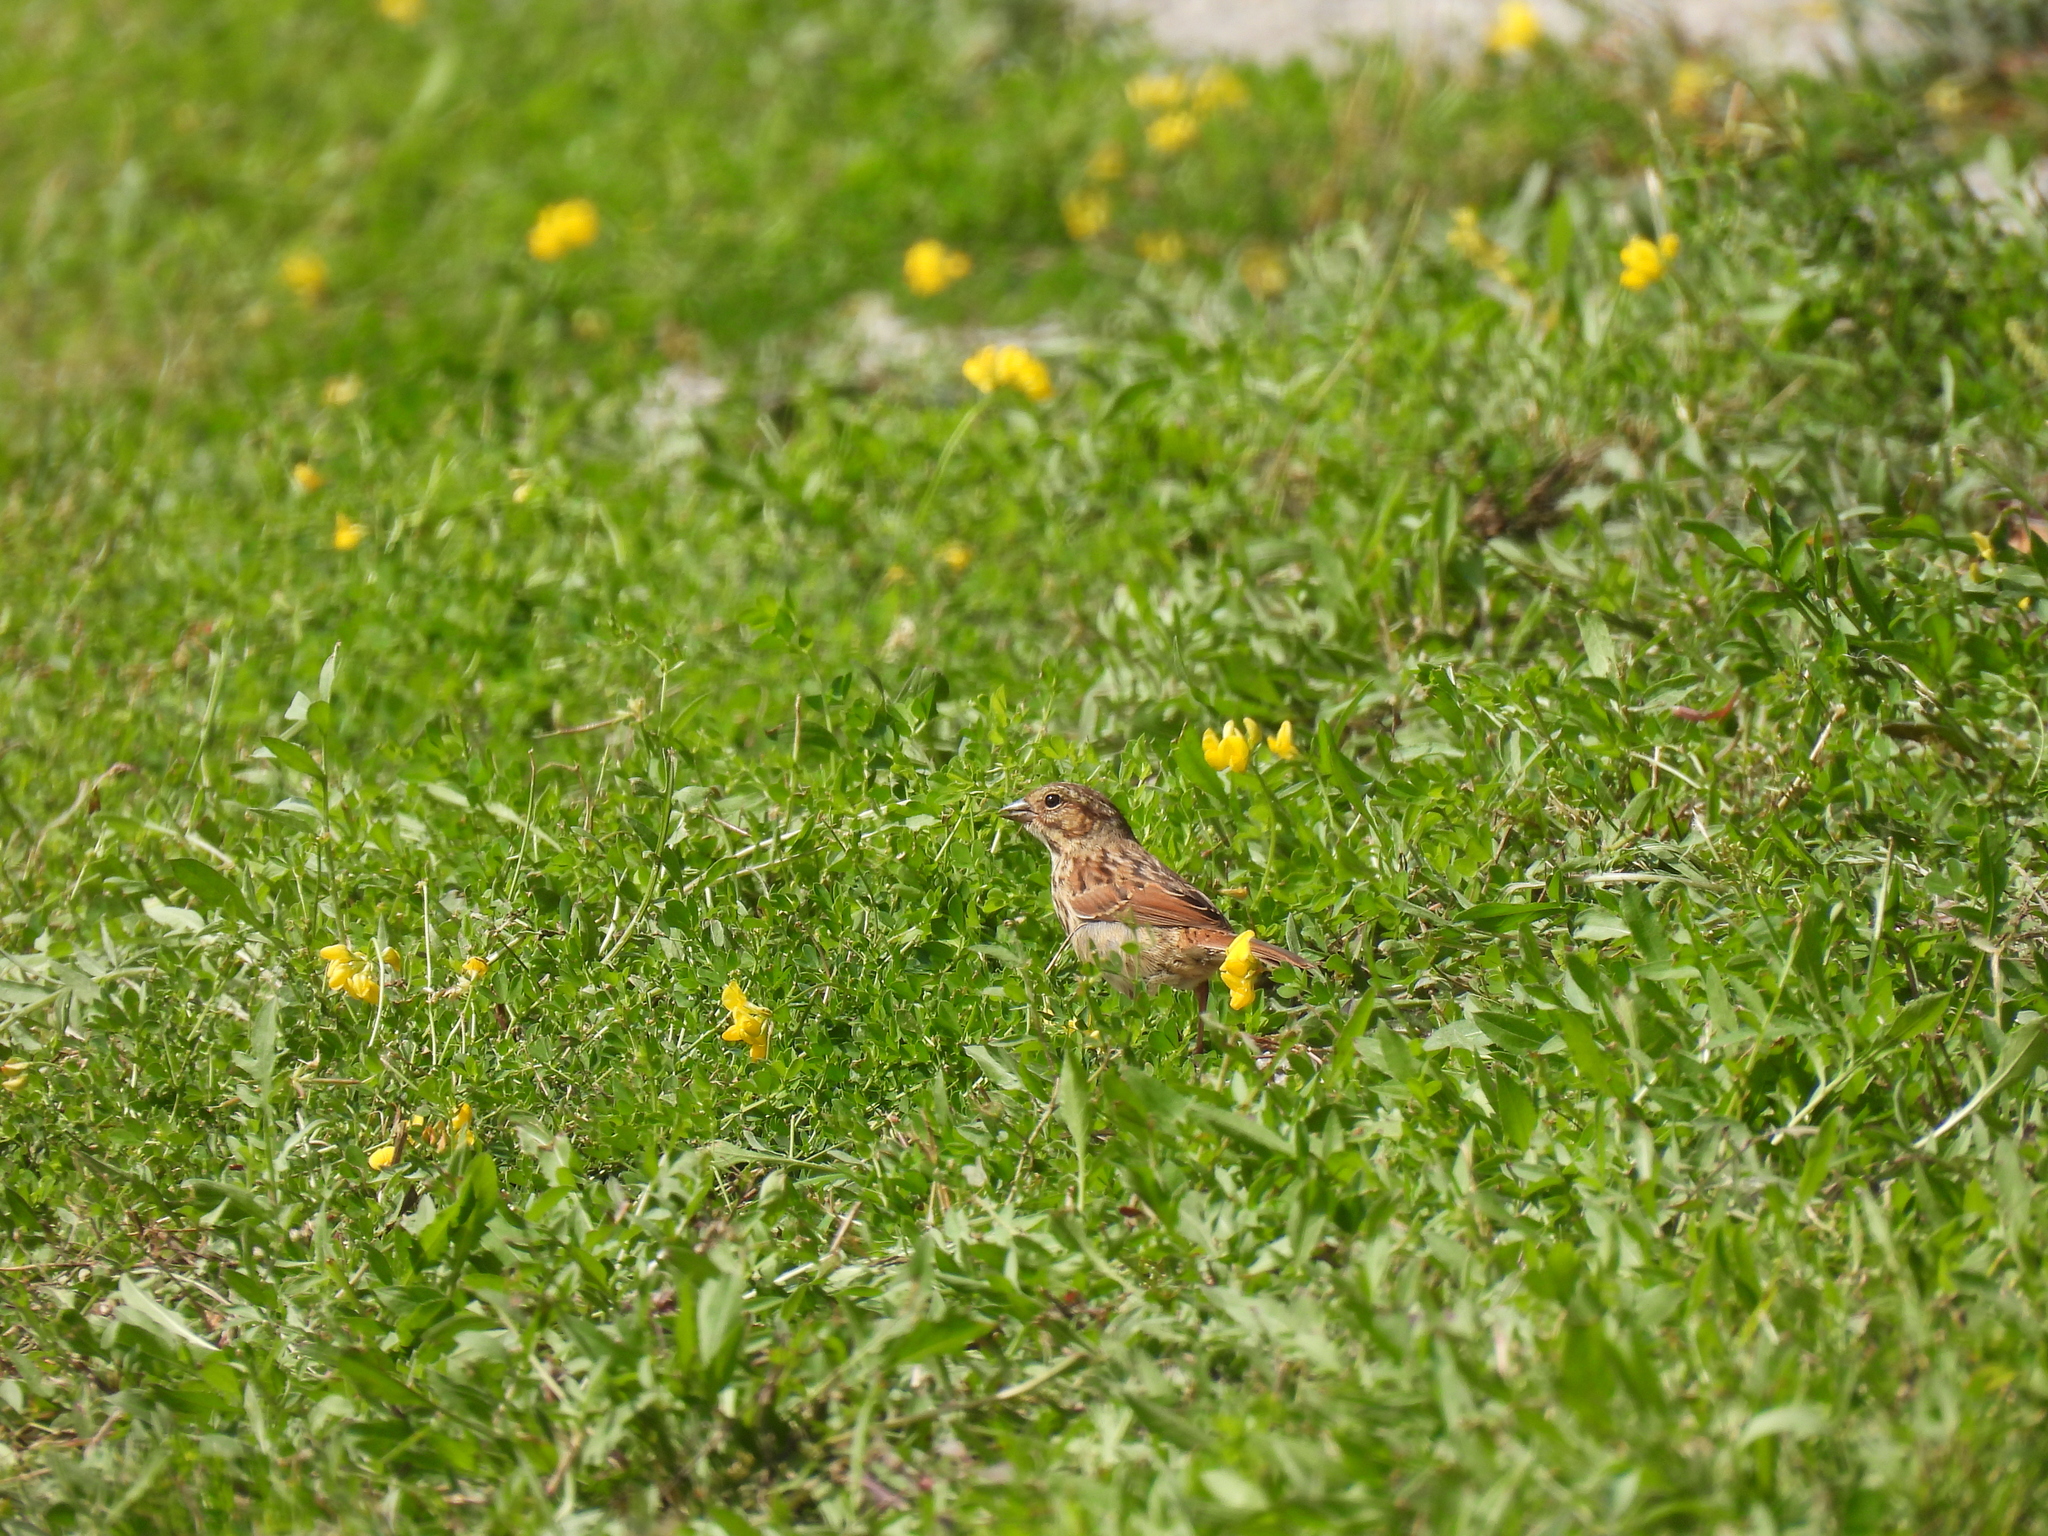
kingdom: Animalia
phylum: Chordata
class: Aves
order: Passeriformes
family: Passerellidae
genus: Melospiza
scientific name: Melospiza melodia
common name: Song sparrow
